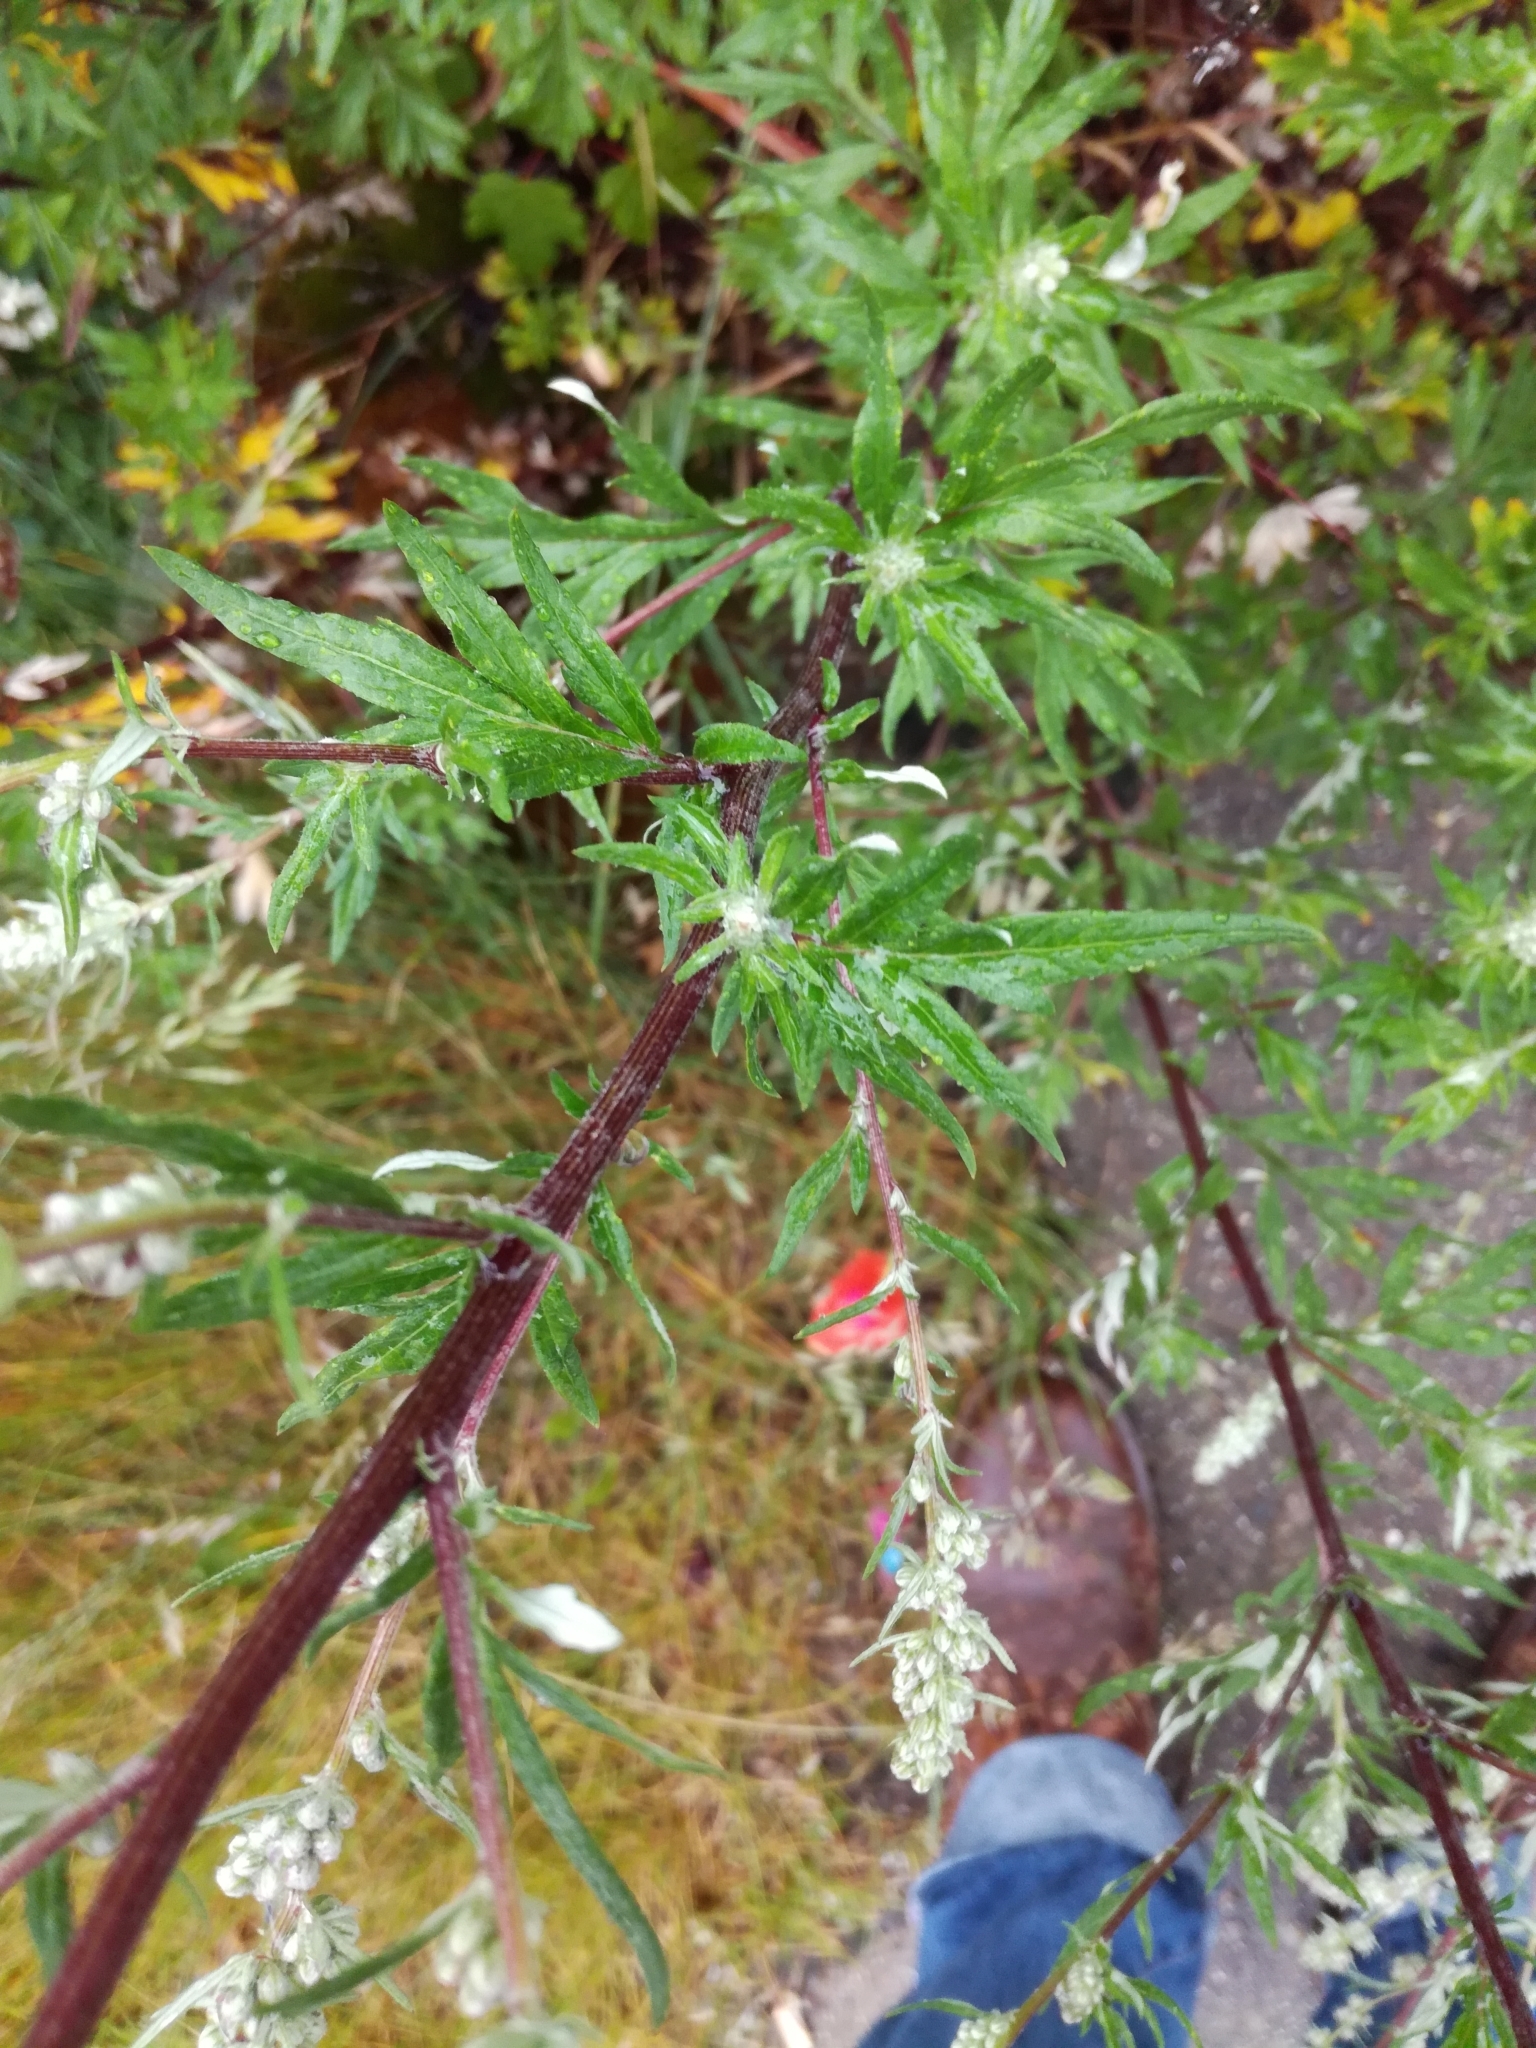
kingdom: Plantae
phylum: Tracheophyta
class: Magnoliopsida
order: Asterales
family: Asteraceae
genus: Artemisia
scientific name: Artemisia vulgaris
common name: Mugwort
